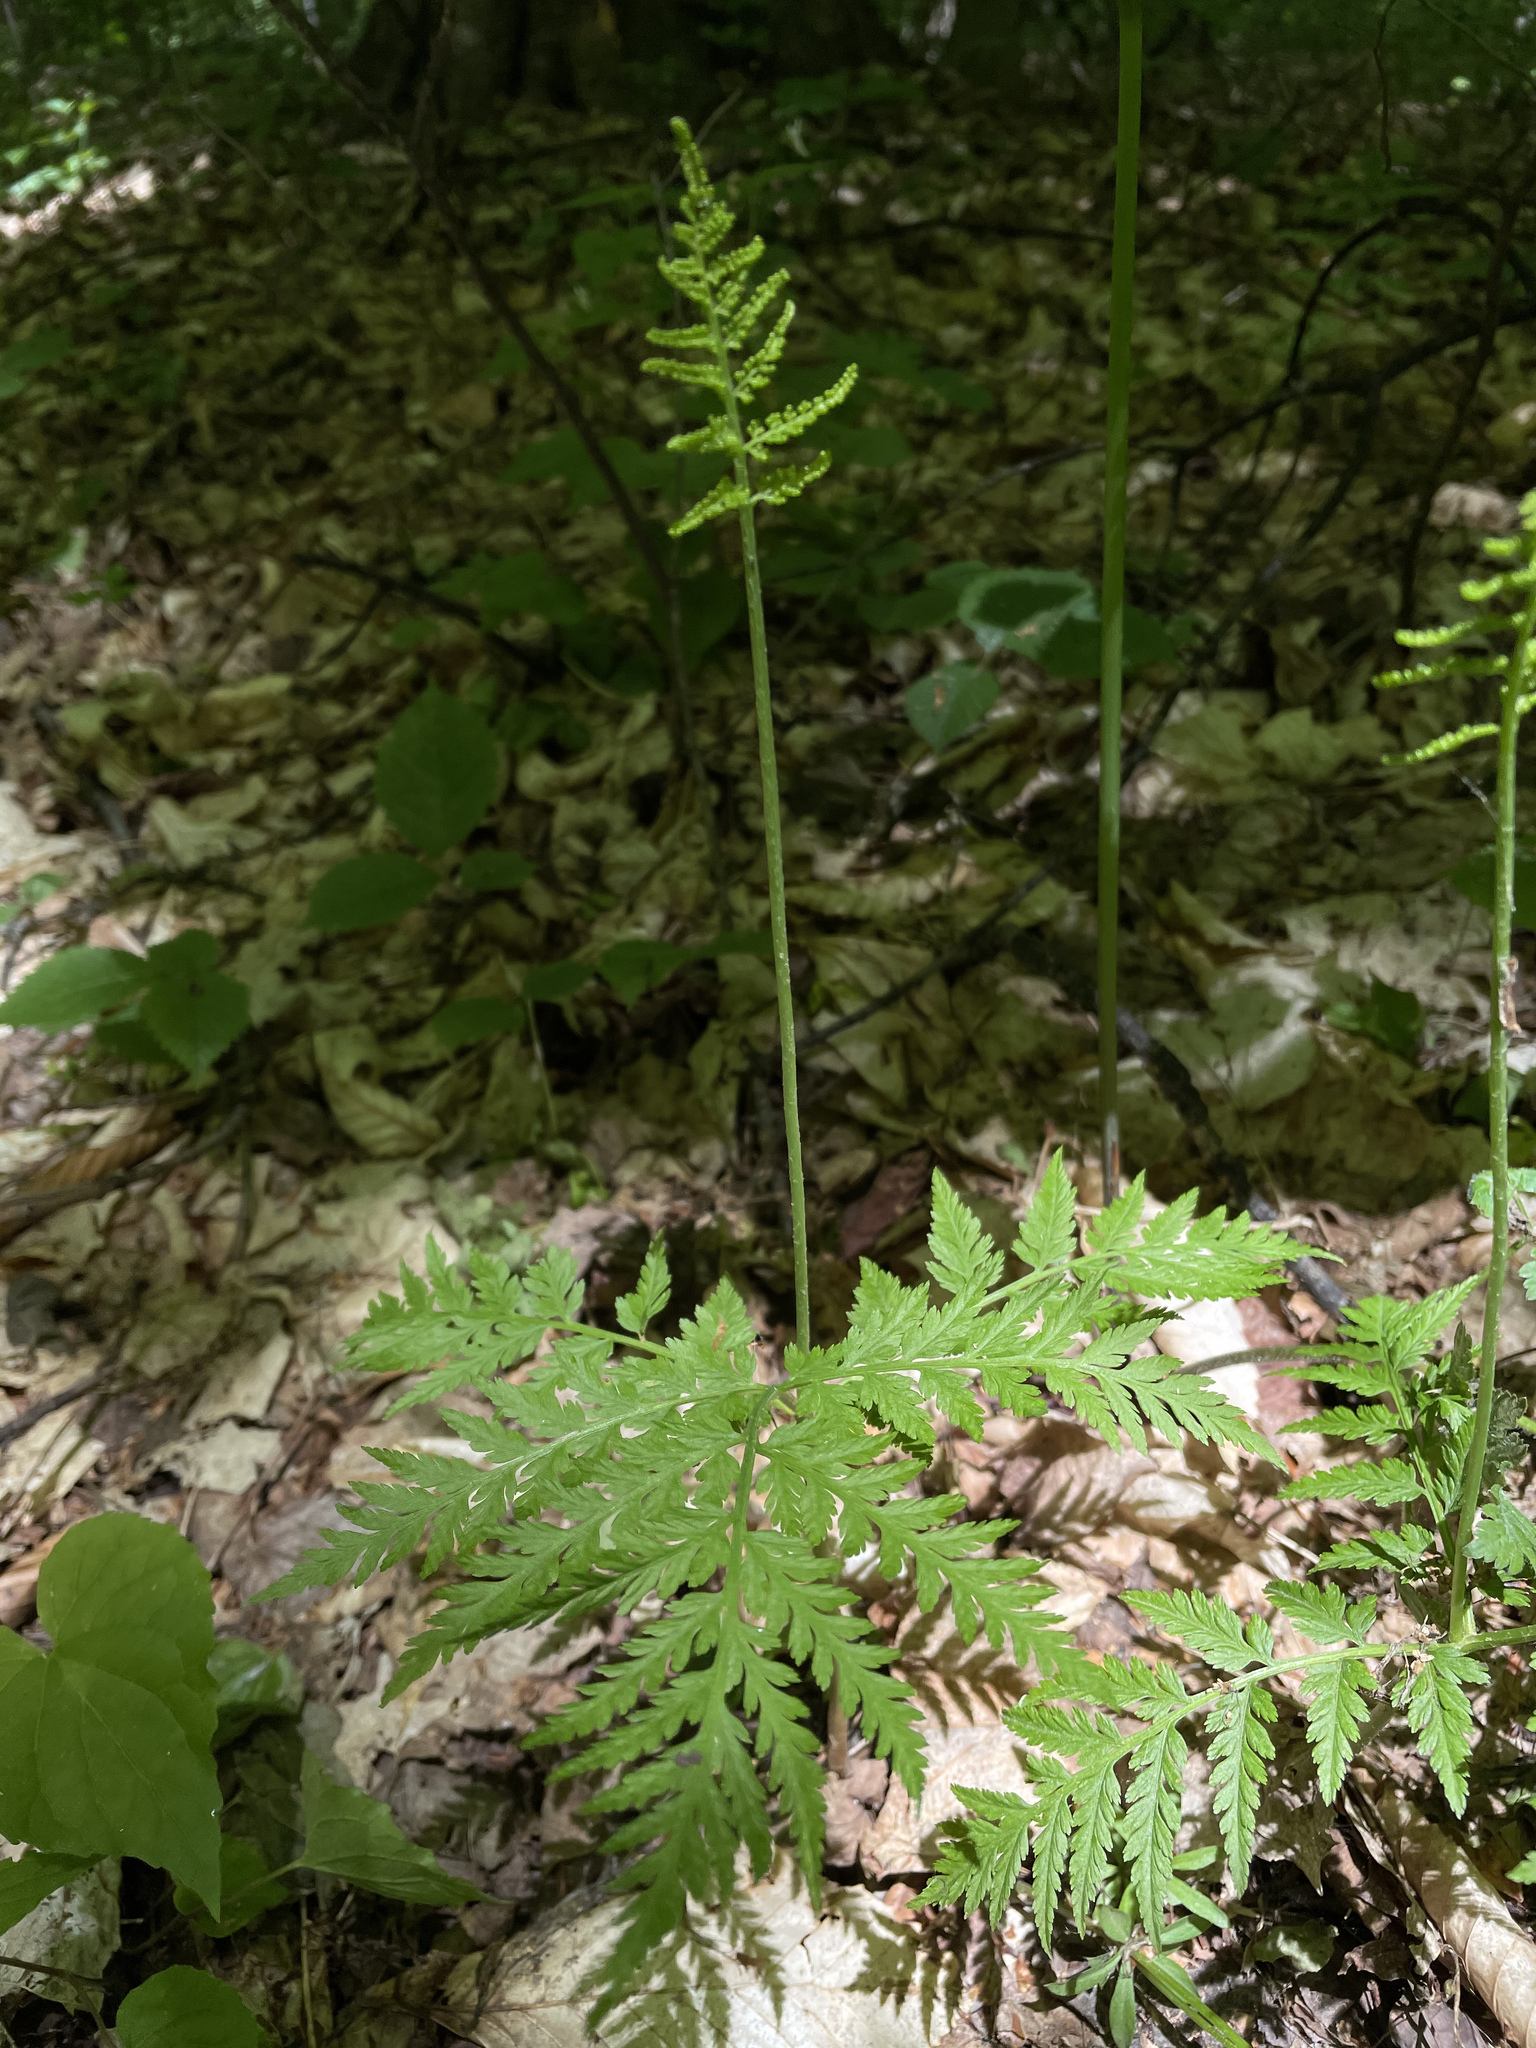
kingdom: Plantae
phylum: Tracheophyta
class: Polypodiopsida
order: Ophioglossales
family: Ophioglossaceae
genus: Botrypus
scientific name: Botrypus virginianus
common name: Common grapefern
